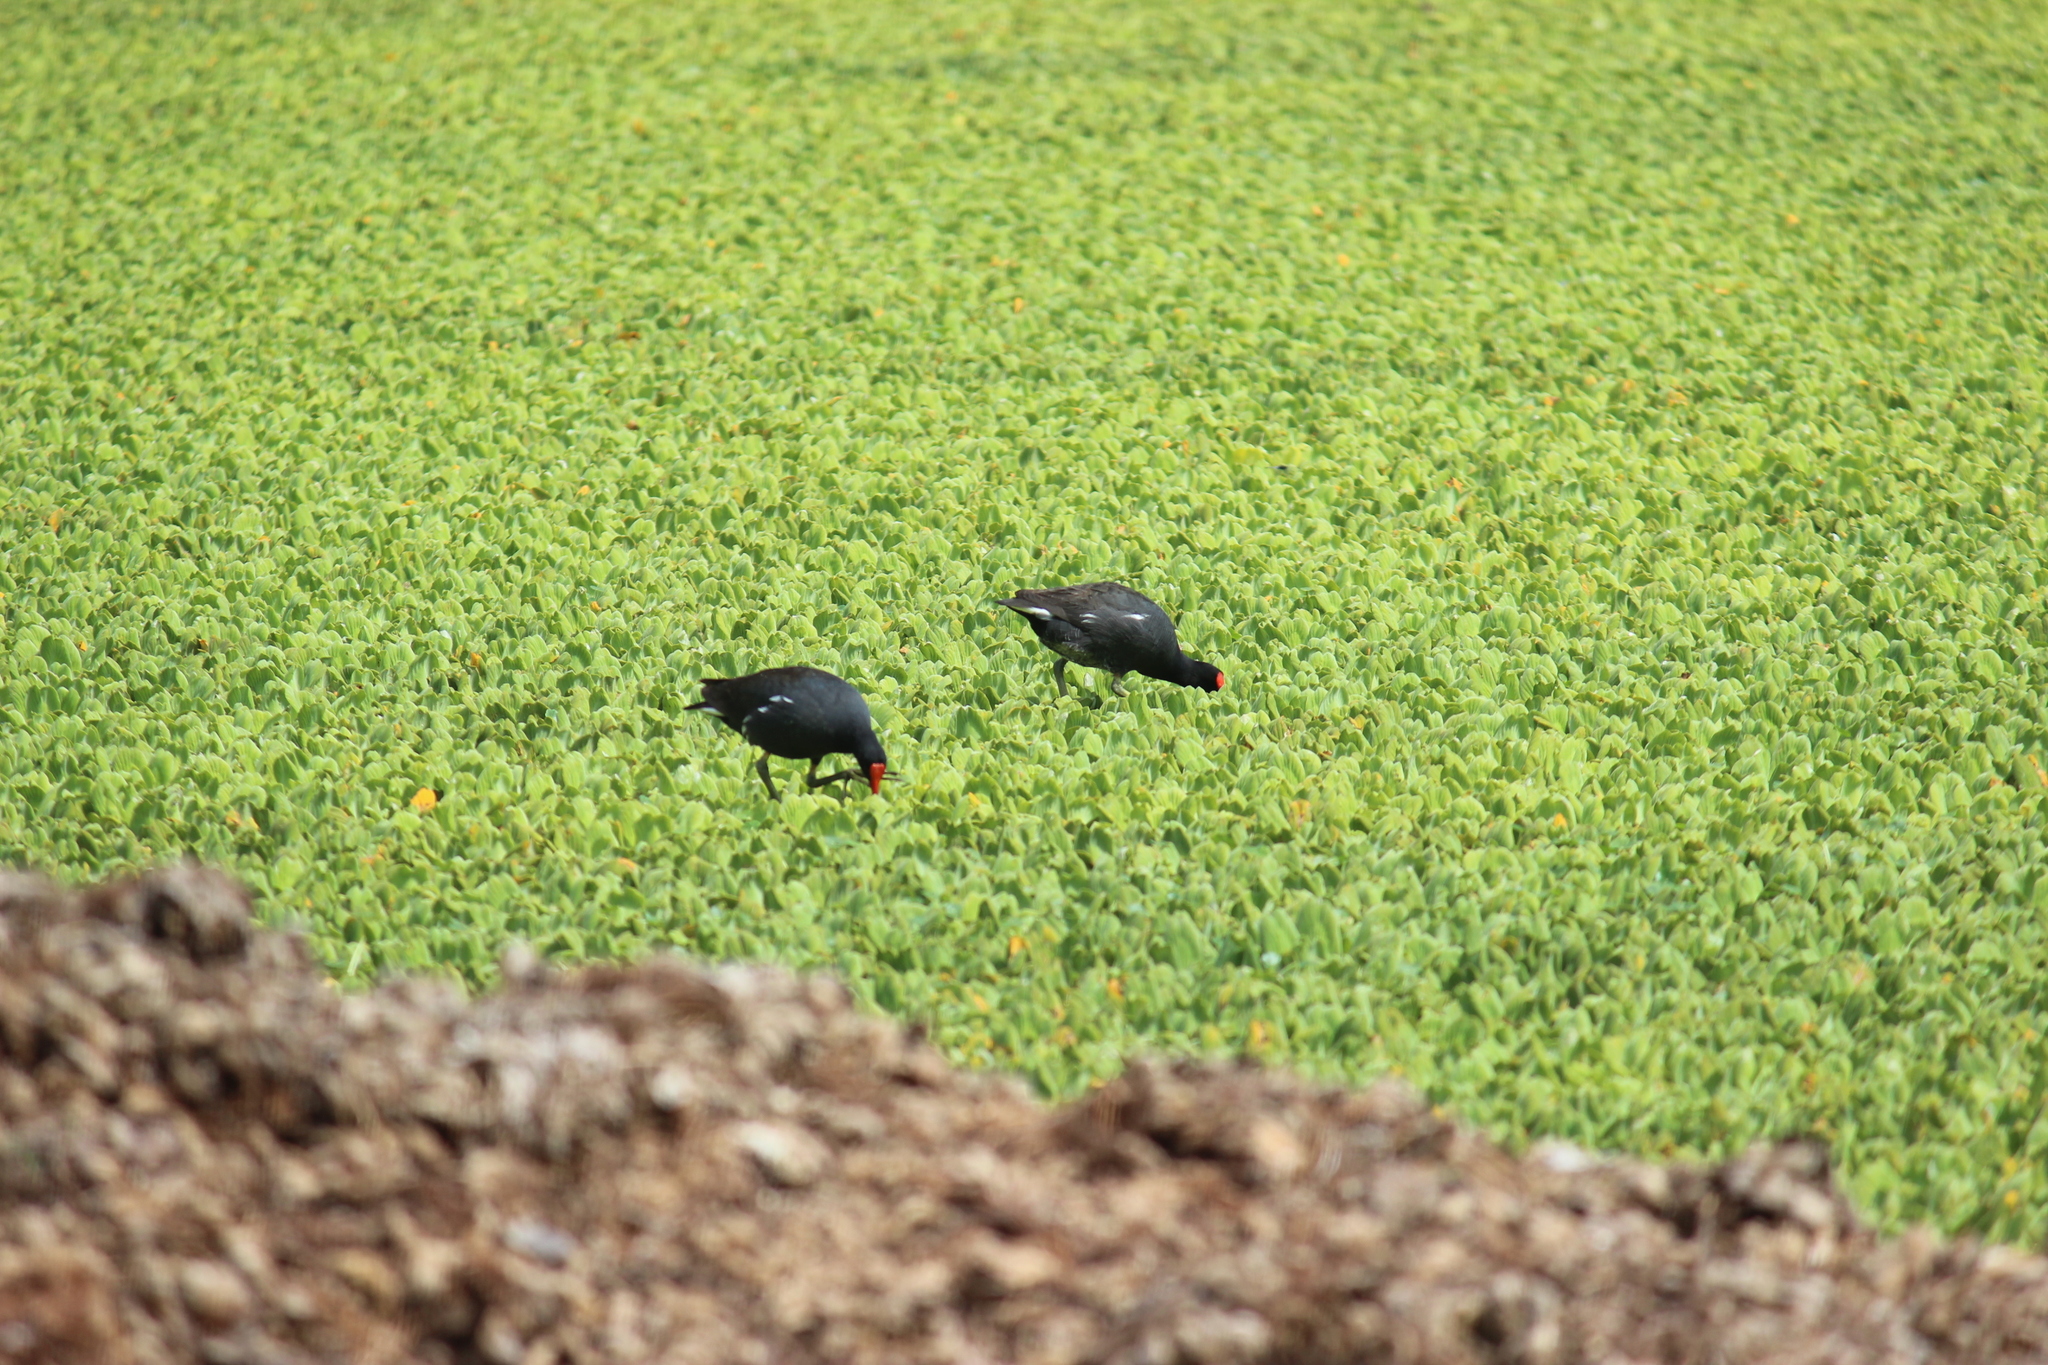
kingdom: Animalia
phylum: Chordata
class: Aves
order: Gruiformes
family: Rallidae
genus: Gallinula
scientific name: Gallinula chloropus
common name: Common moorhen
